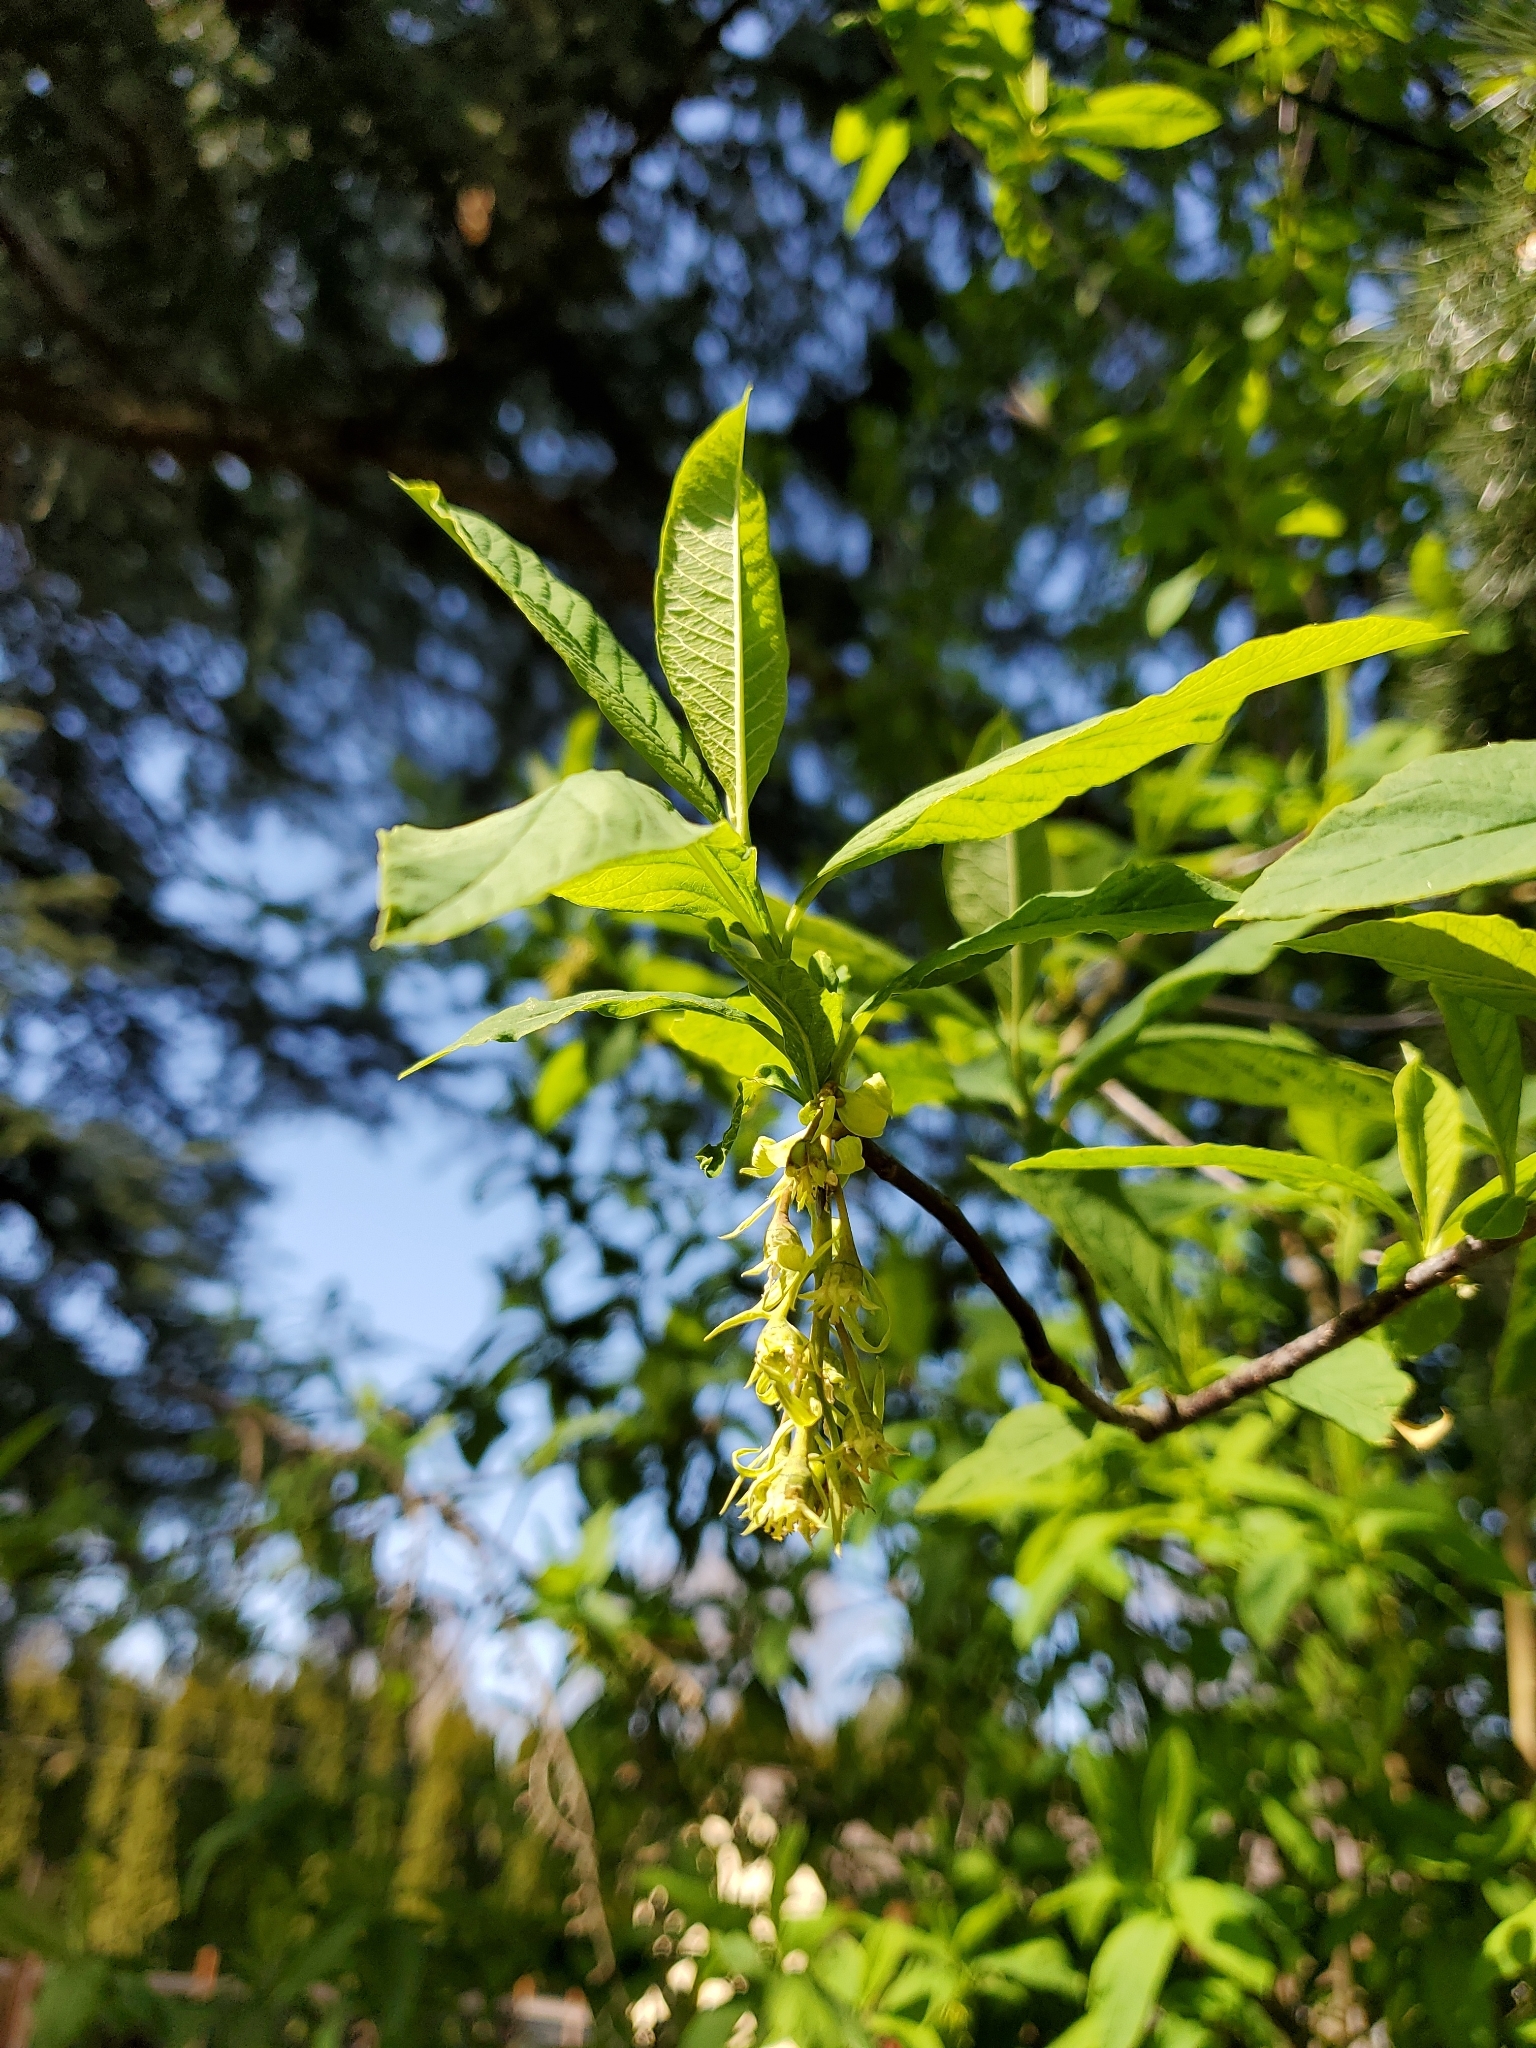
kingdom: Plantae
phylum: Tracheophyta
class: Magnoliopsida
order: Rosales
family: Rosaceae
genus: Oemleria
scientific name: Oemleria cerasiformis
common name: Osoberry
